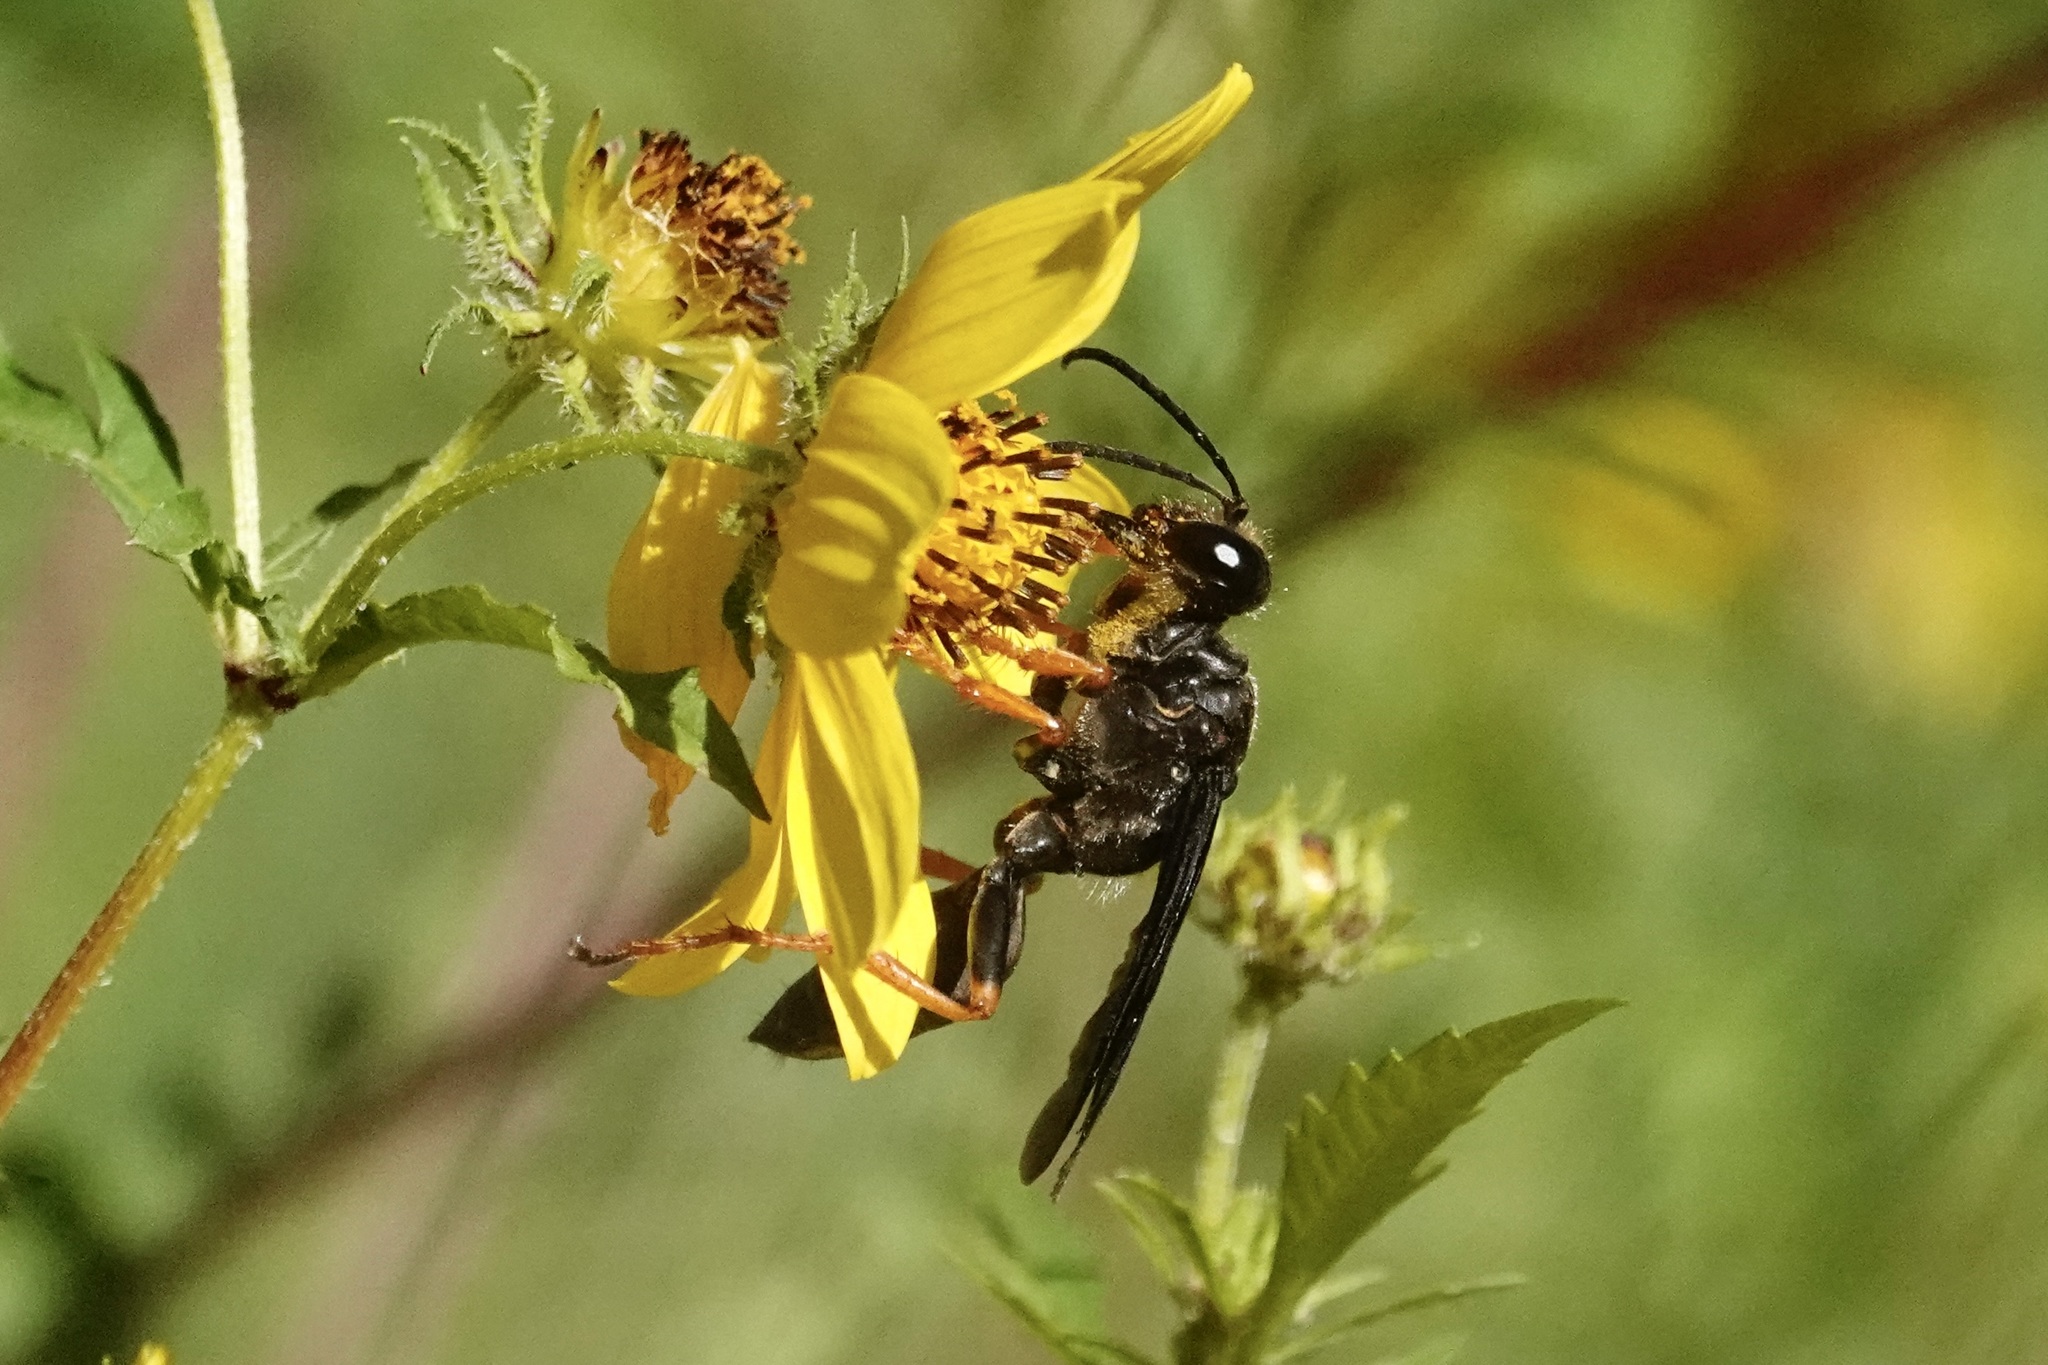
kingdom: Animalia
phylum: Arthropoda
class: Insecta
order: Hymenoptera
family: Sphecidae
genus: Sphex
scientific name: Sphex nudus
